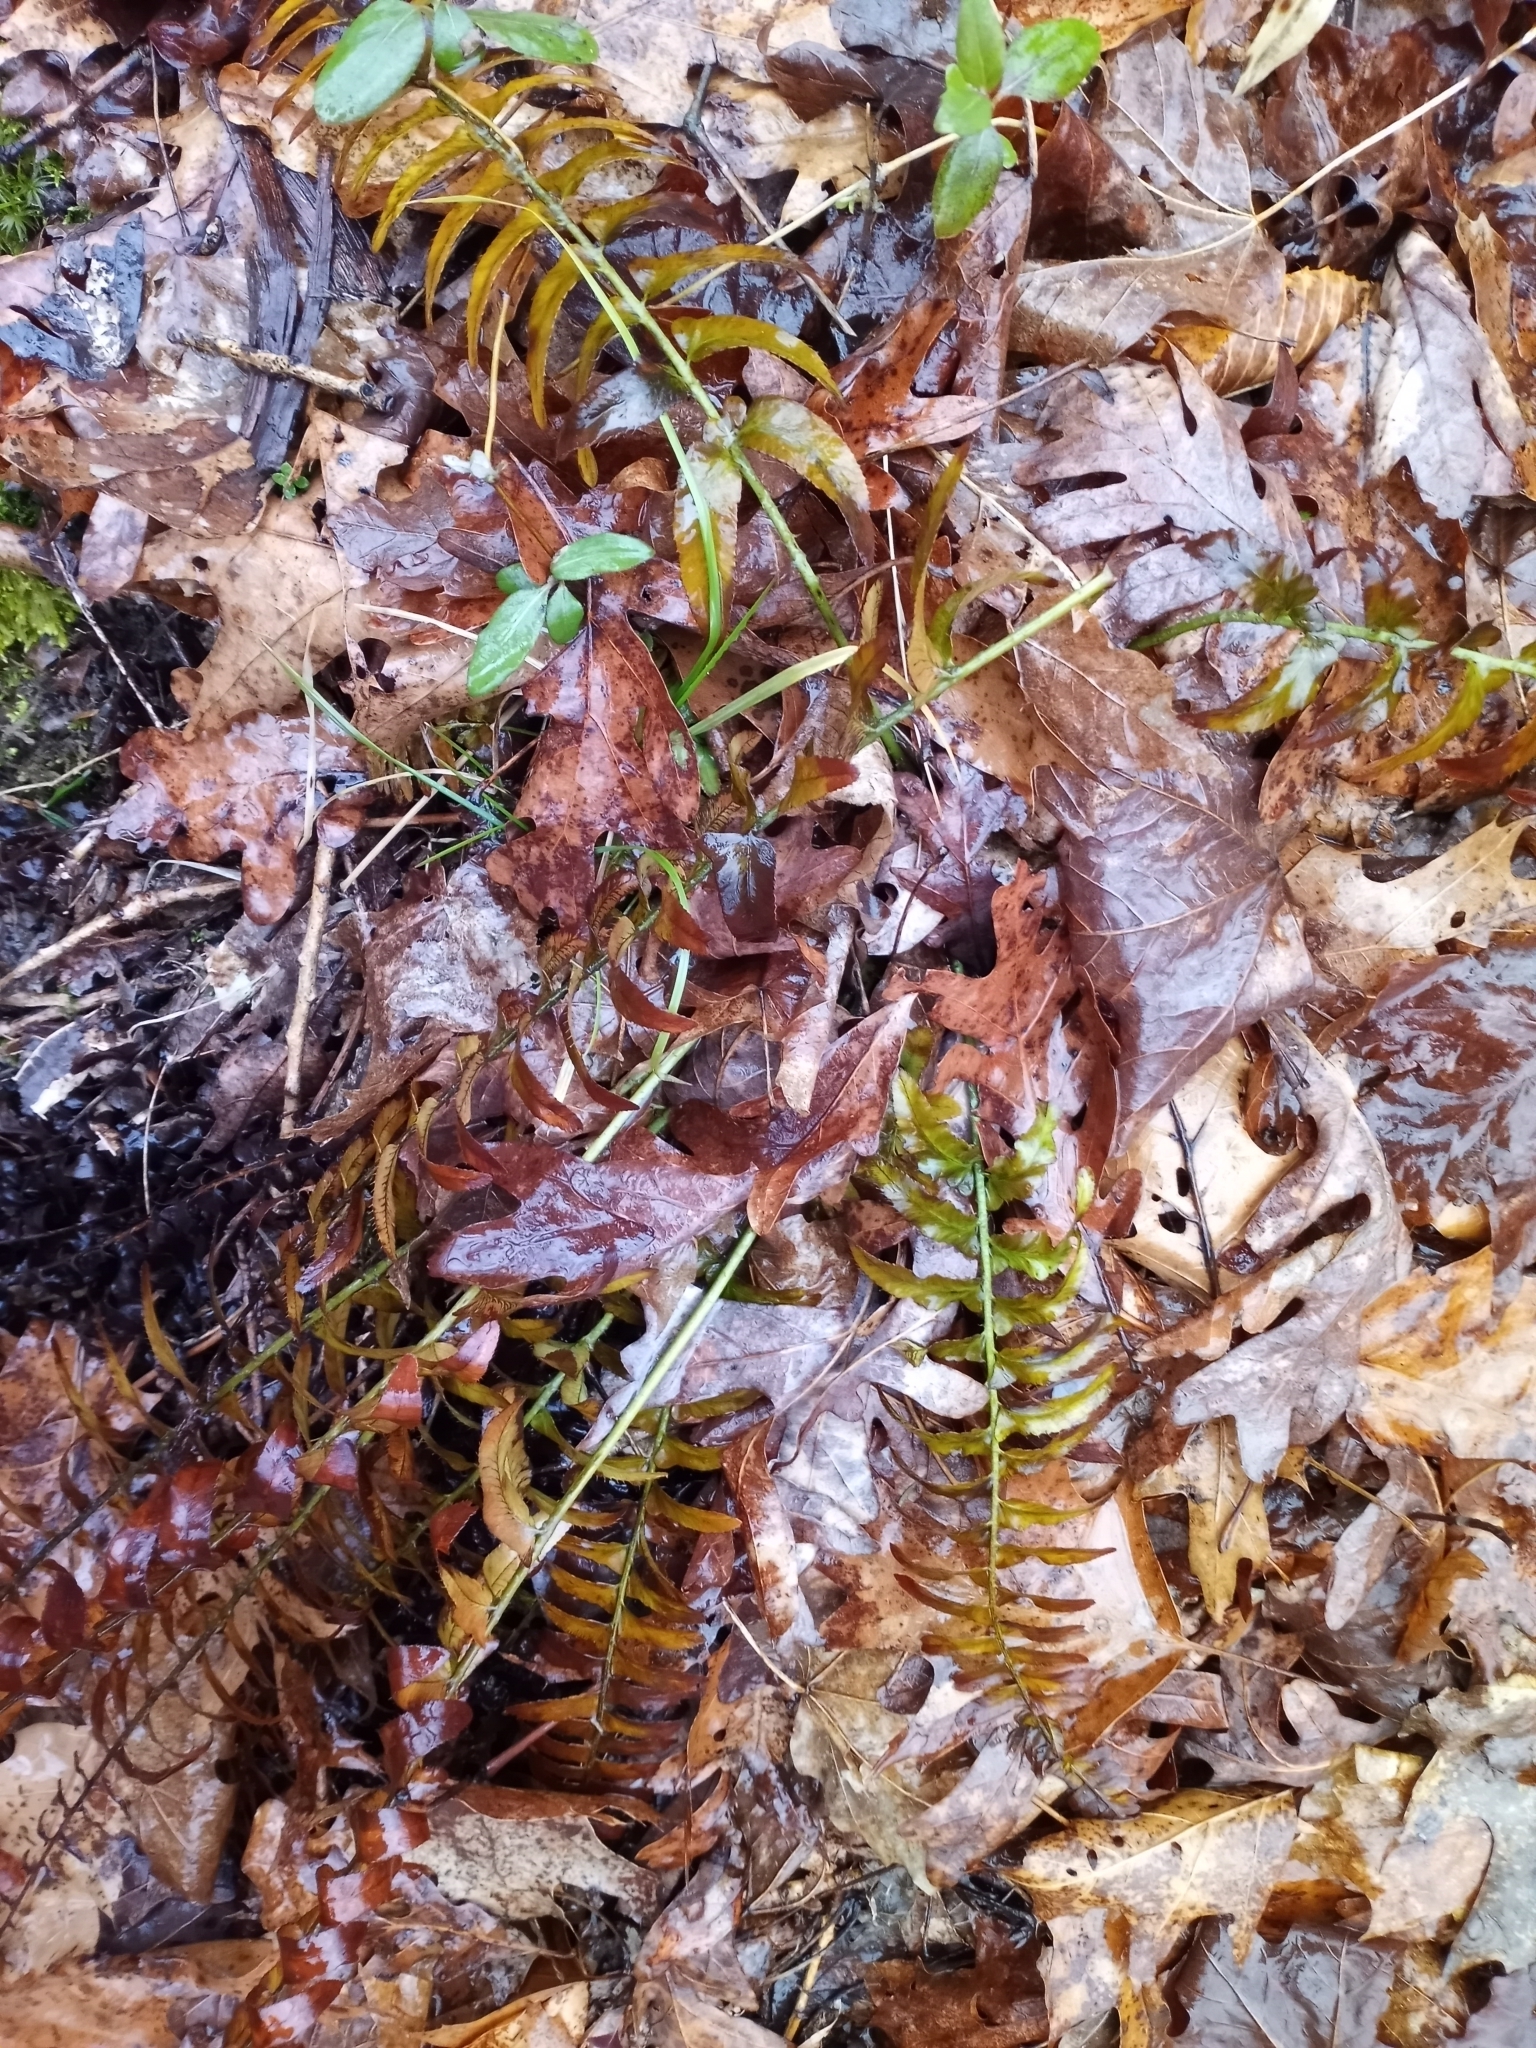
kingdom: Plantae
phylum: Tracheophyta
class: Polypodiopsida
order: Polypodiales
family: Dryopteridaceae
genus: Polystichum
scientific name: Polystichum acrostichoides
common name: Christmas fern
